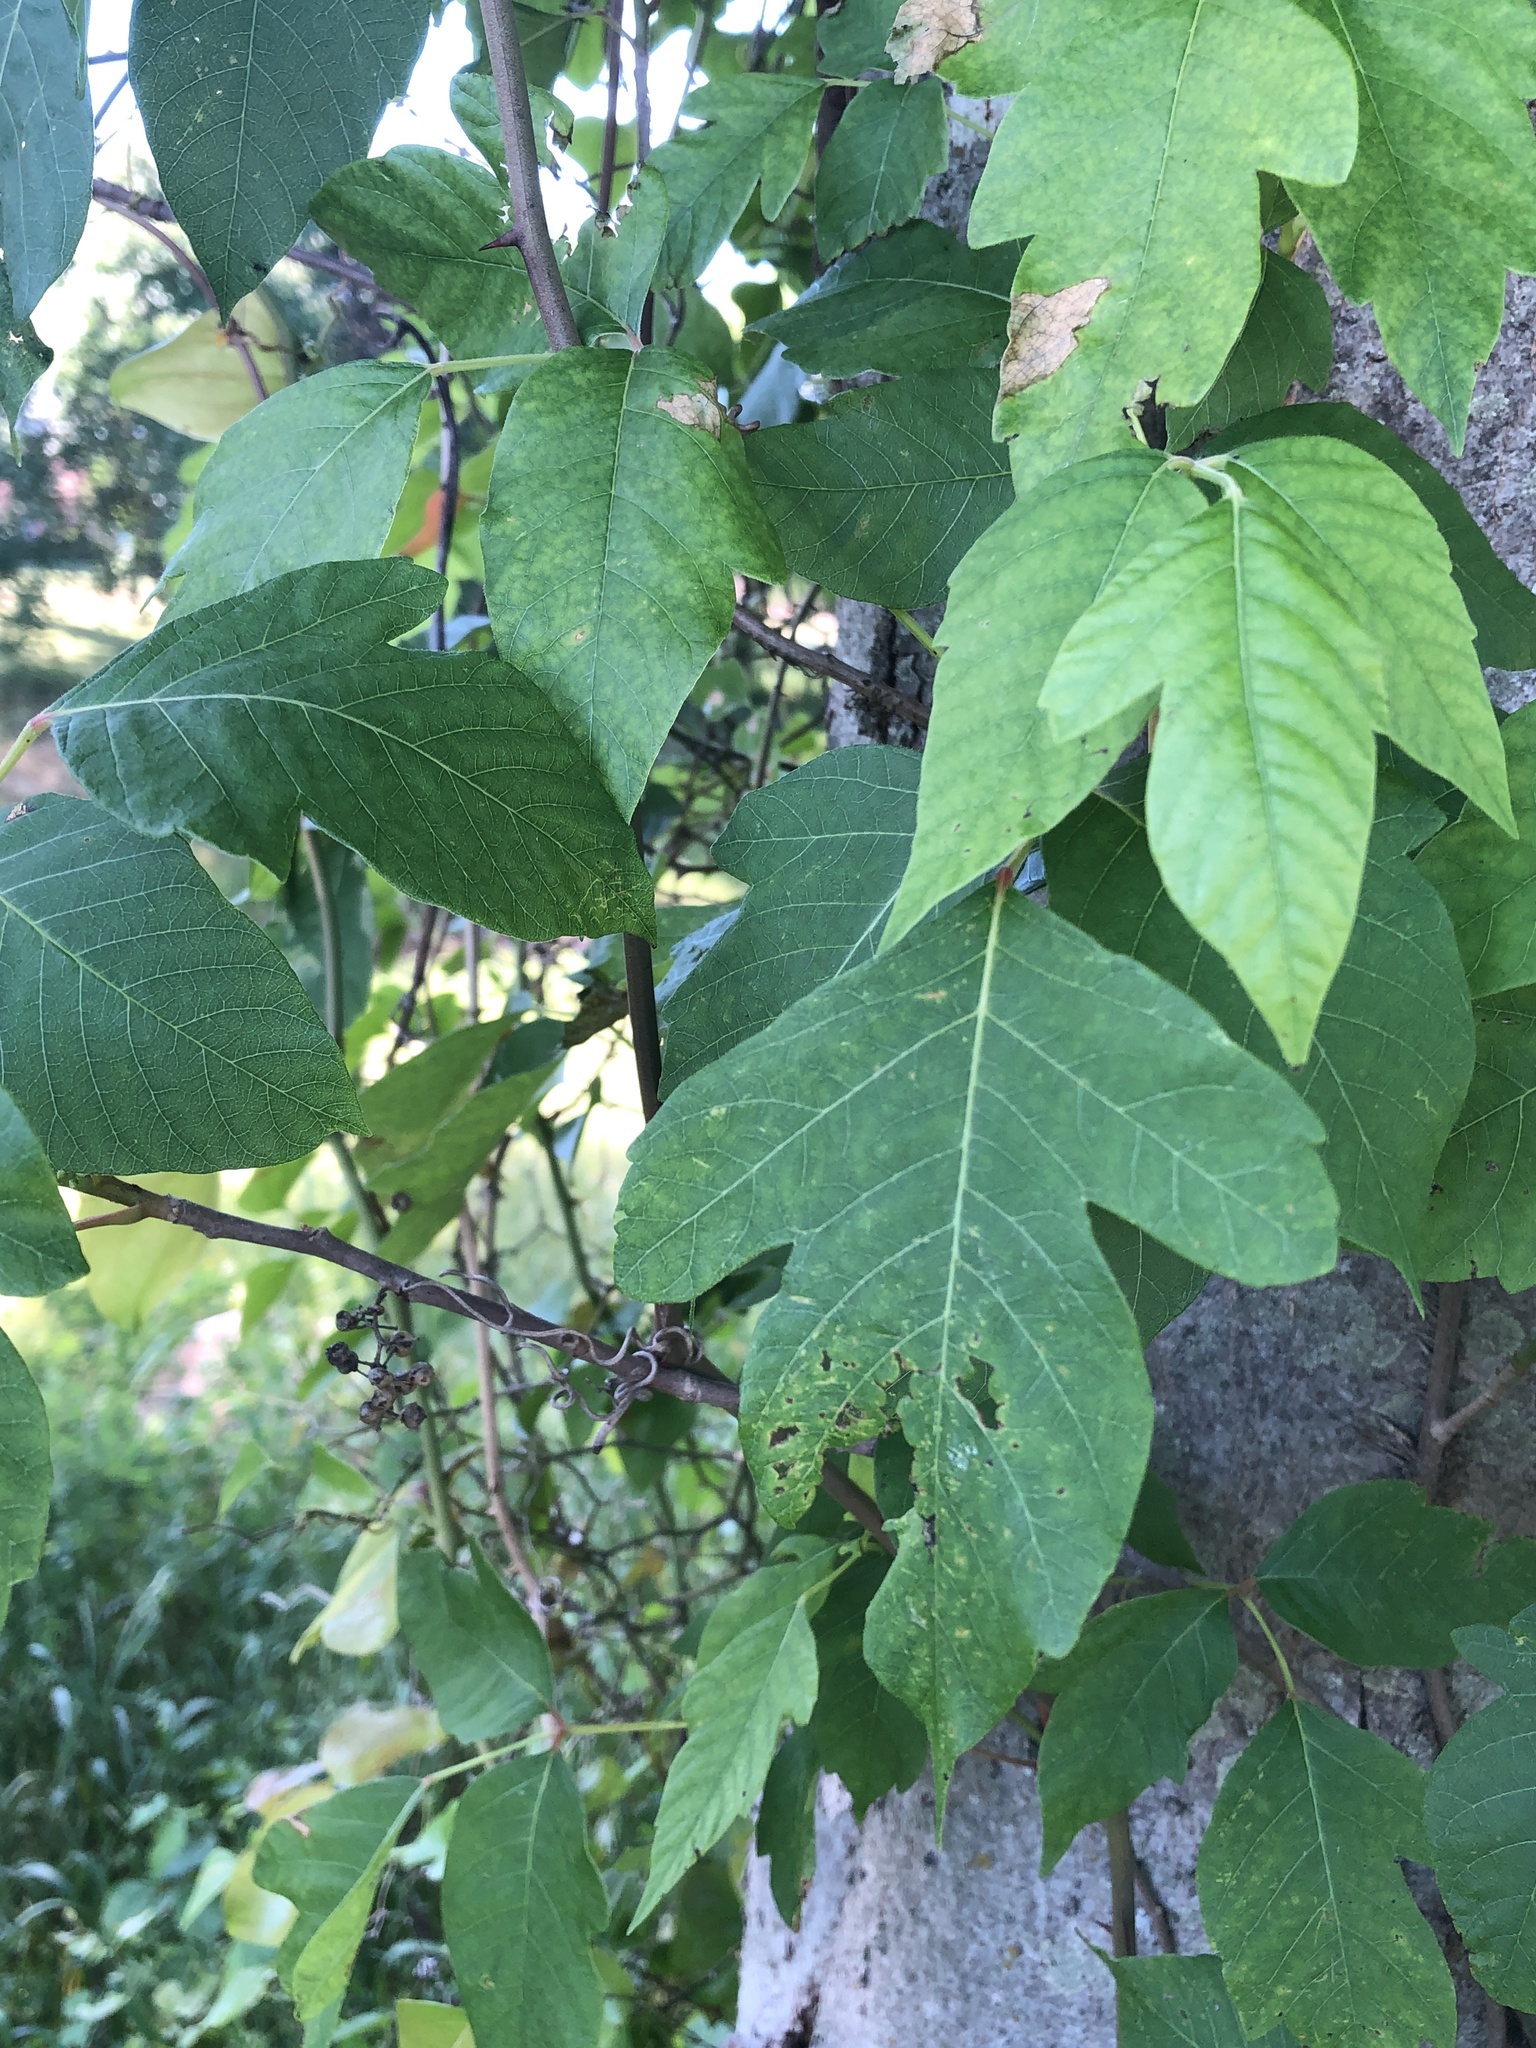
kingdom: Plantae
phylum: Tracheophyta
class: Magnoliopsida
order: Sapindales
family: Anacardiaceae
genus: Toxicodendron
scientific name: Toxicodendron radicans
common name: Poison ivy
